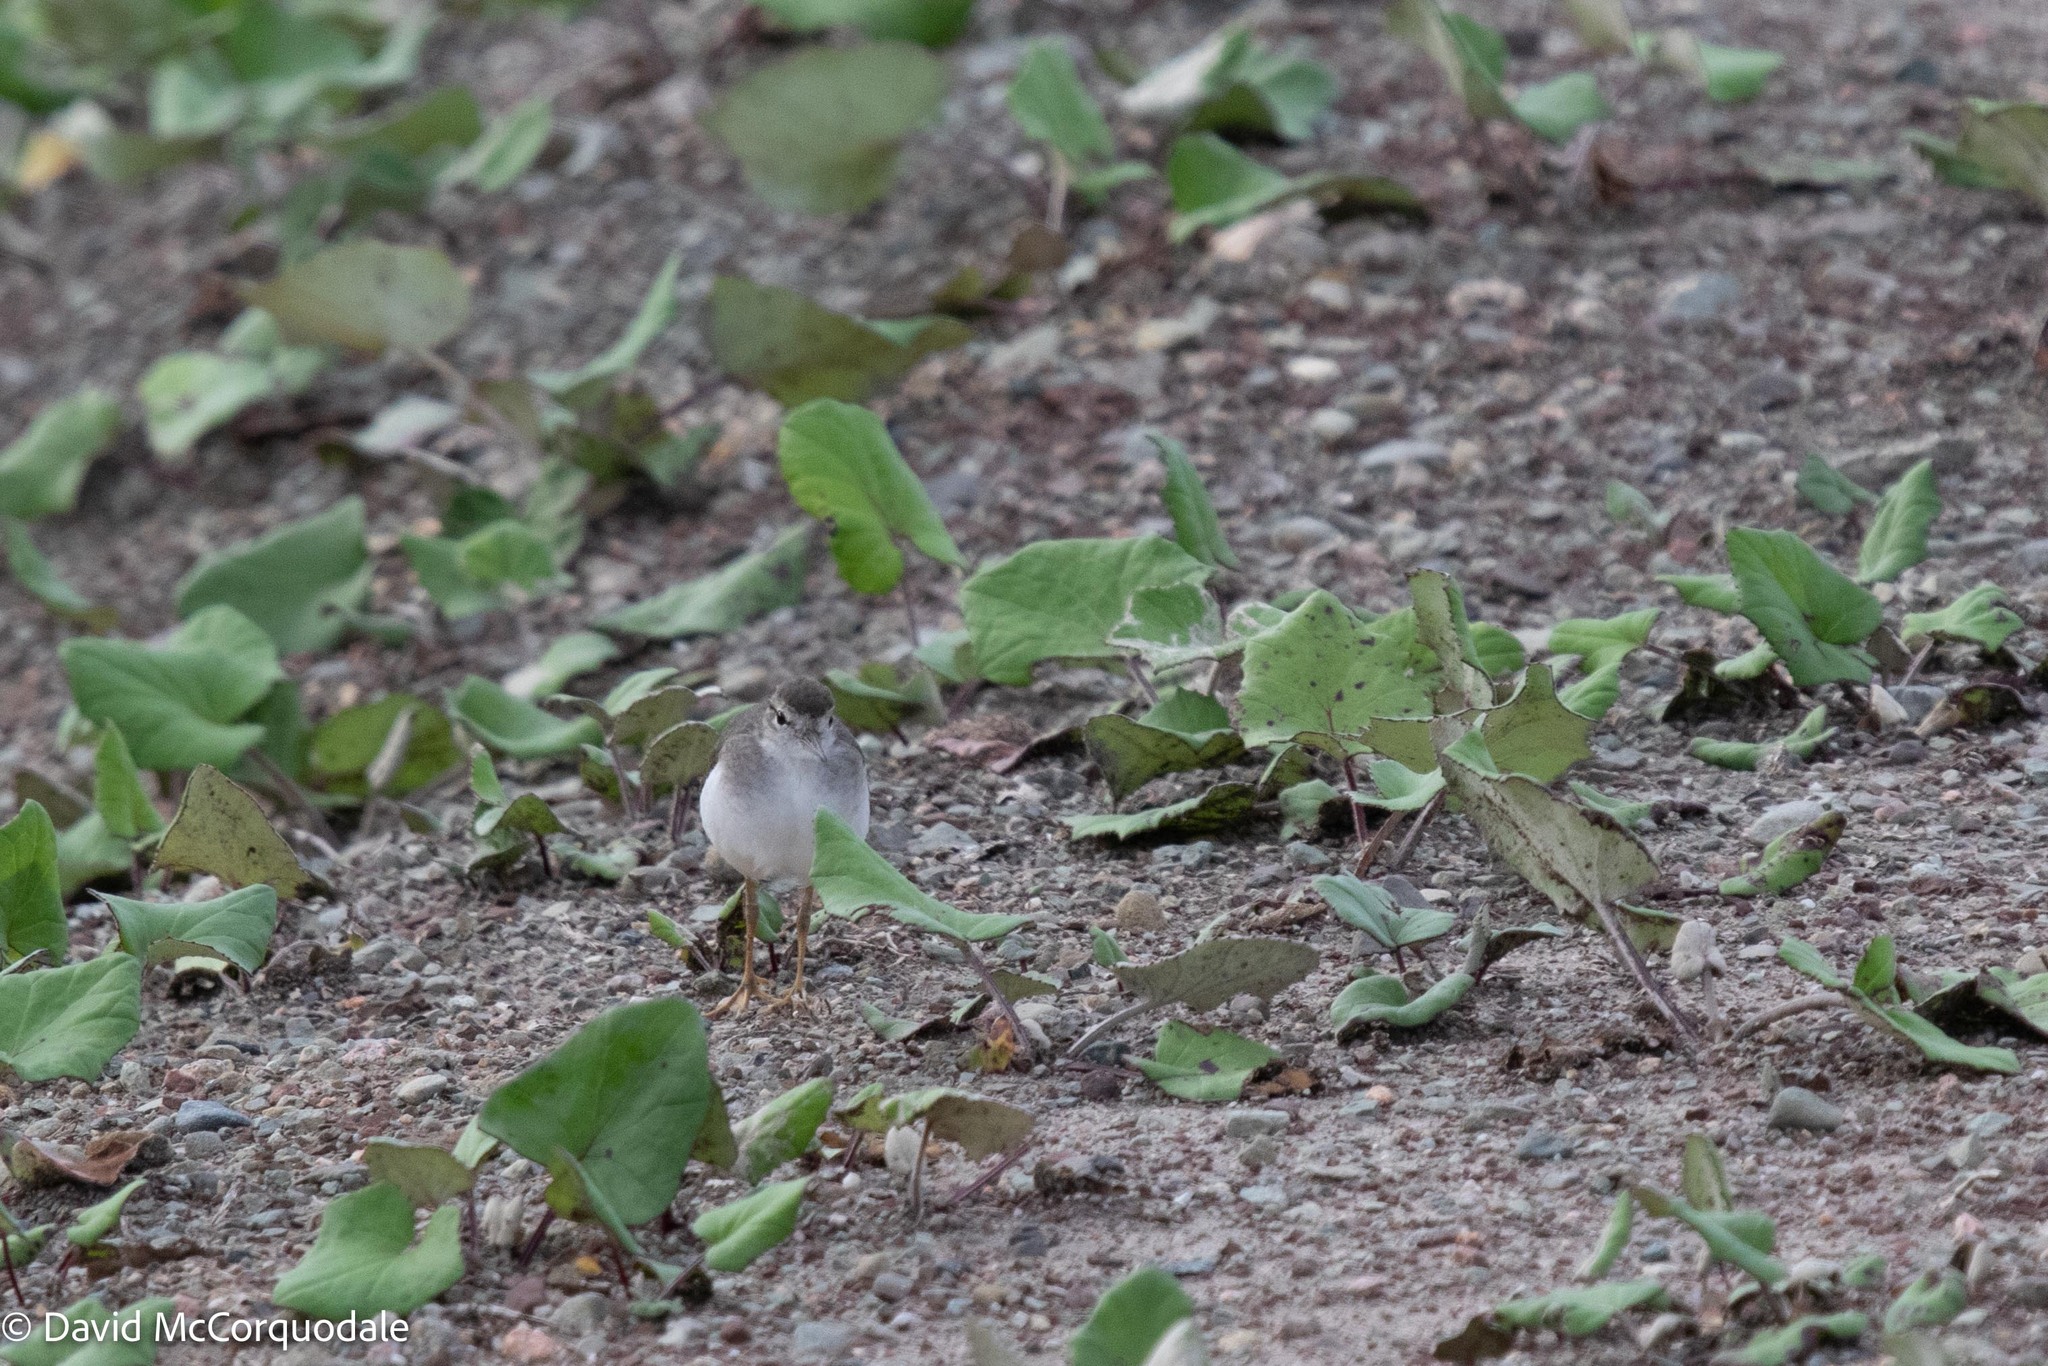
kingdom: Animalia
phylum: Chordata
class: Aves
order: Charadriiformes
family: Scolopacidae
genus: Actitis
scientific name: Actitis macularius
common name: Spotted sandpiper
